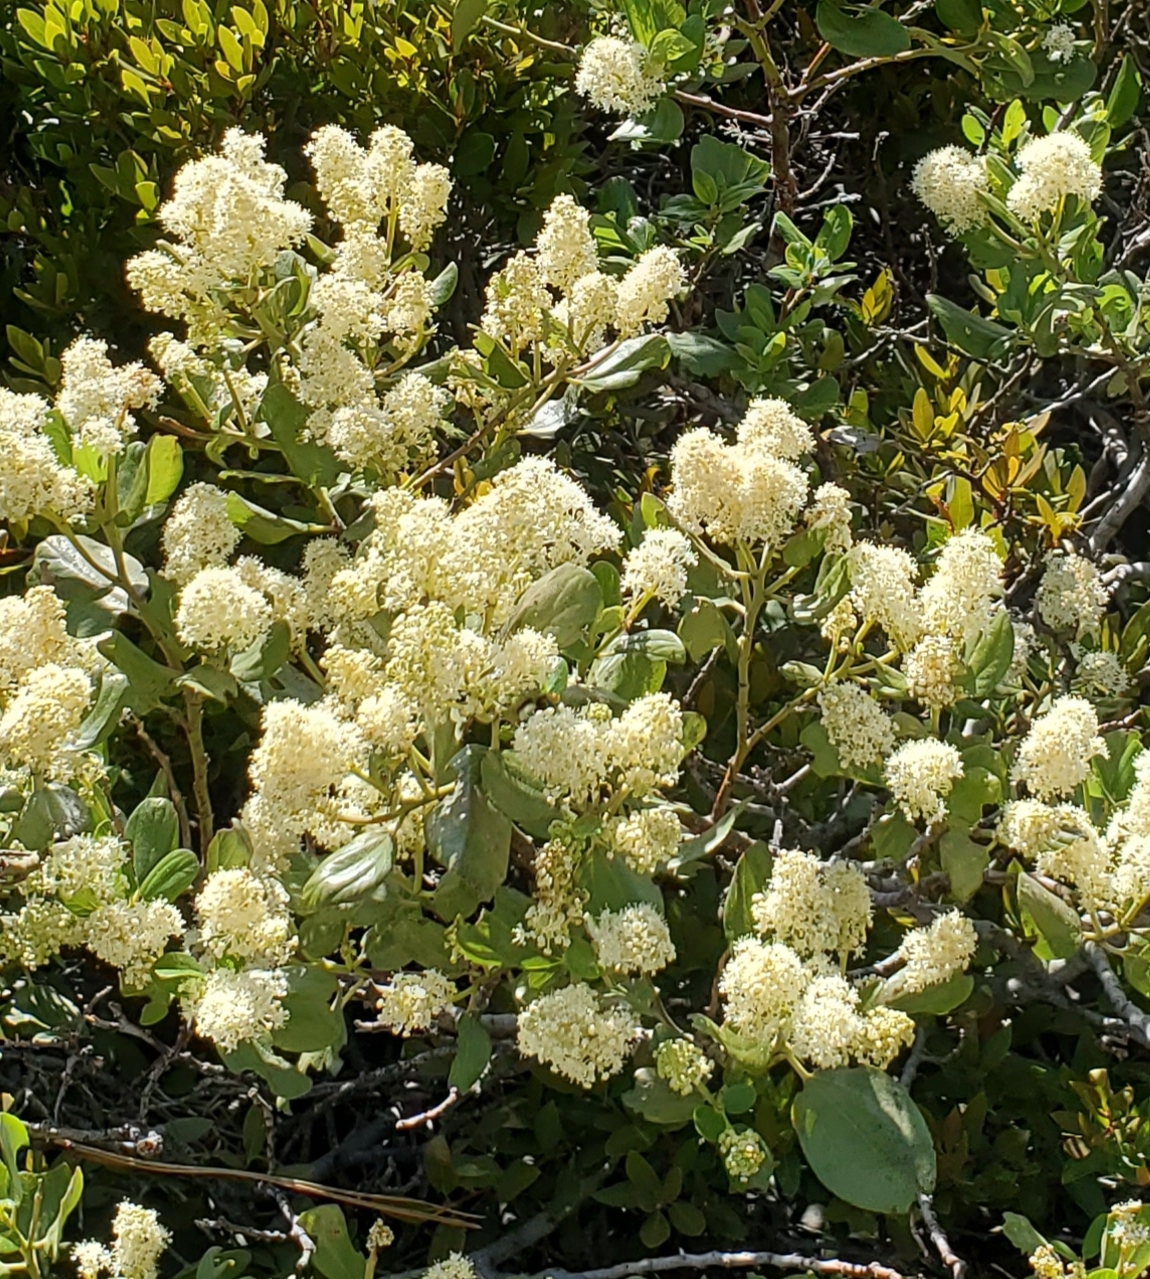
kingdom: Plantae
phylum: Tracheophyta
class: Magnoliopsida
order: Rosales
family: Rhamnaceae
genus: Ceanothus
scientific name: Ceanothus velutinus
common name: Snowbrush
